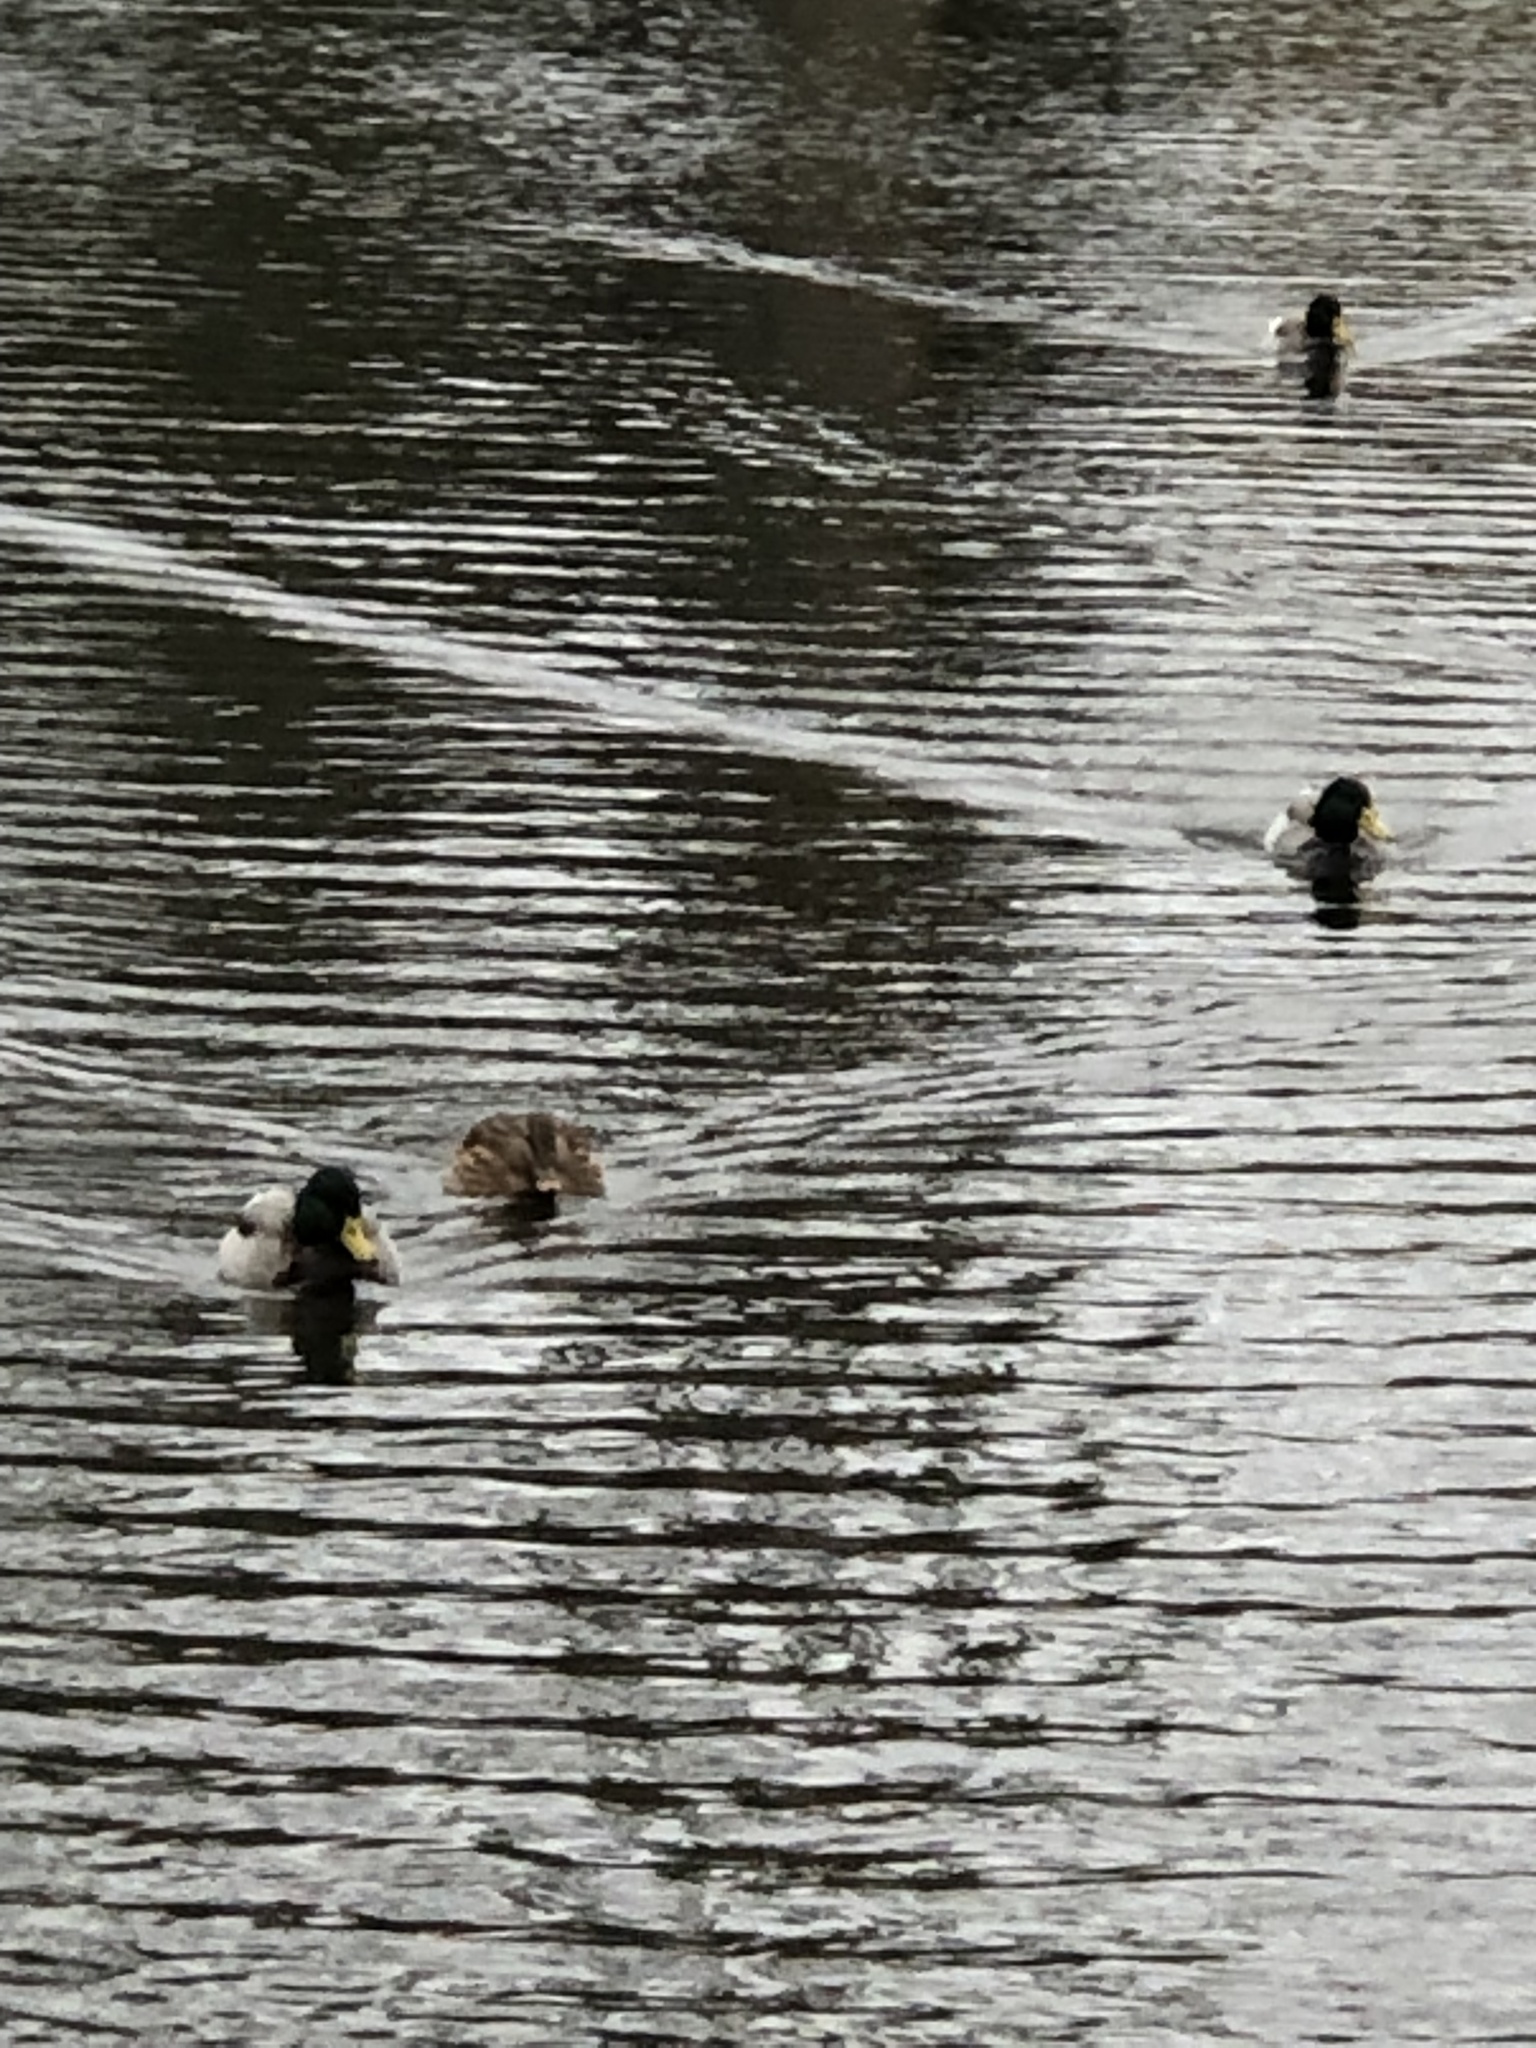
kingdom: Animalia
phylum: Chordata
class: Aves
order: Anseriformes
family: Anatidae
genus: Anas
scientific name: Anas platyrhynchos
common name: Mallard
